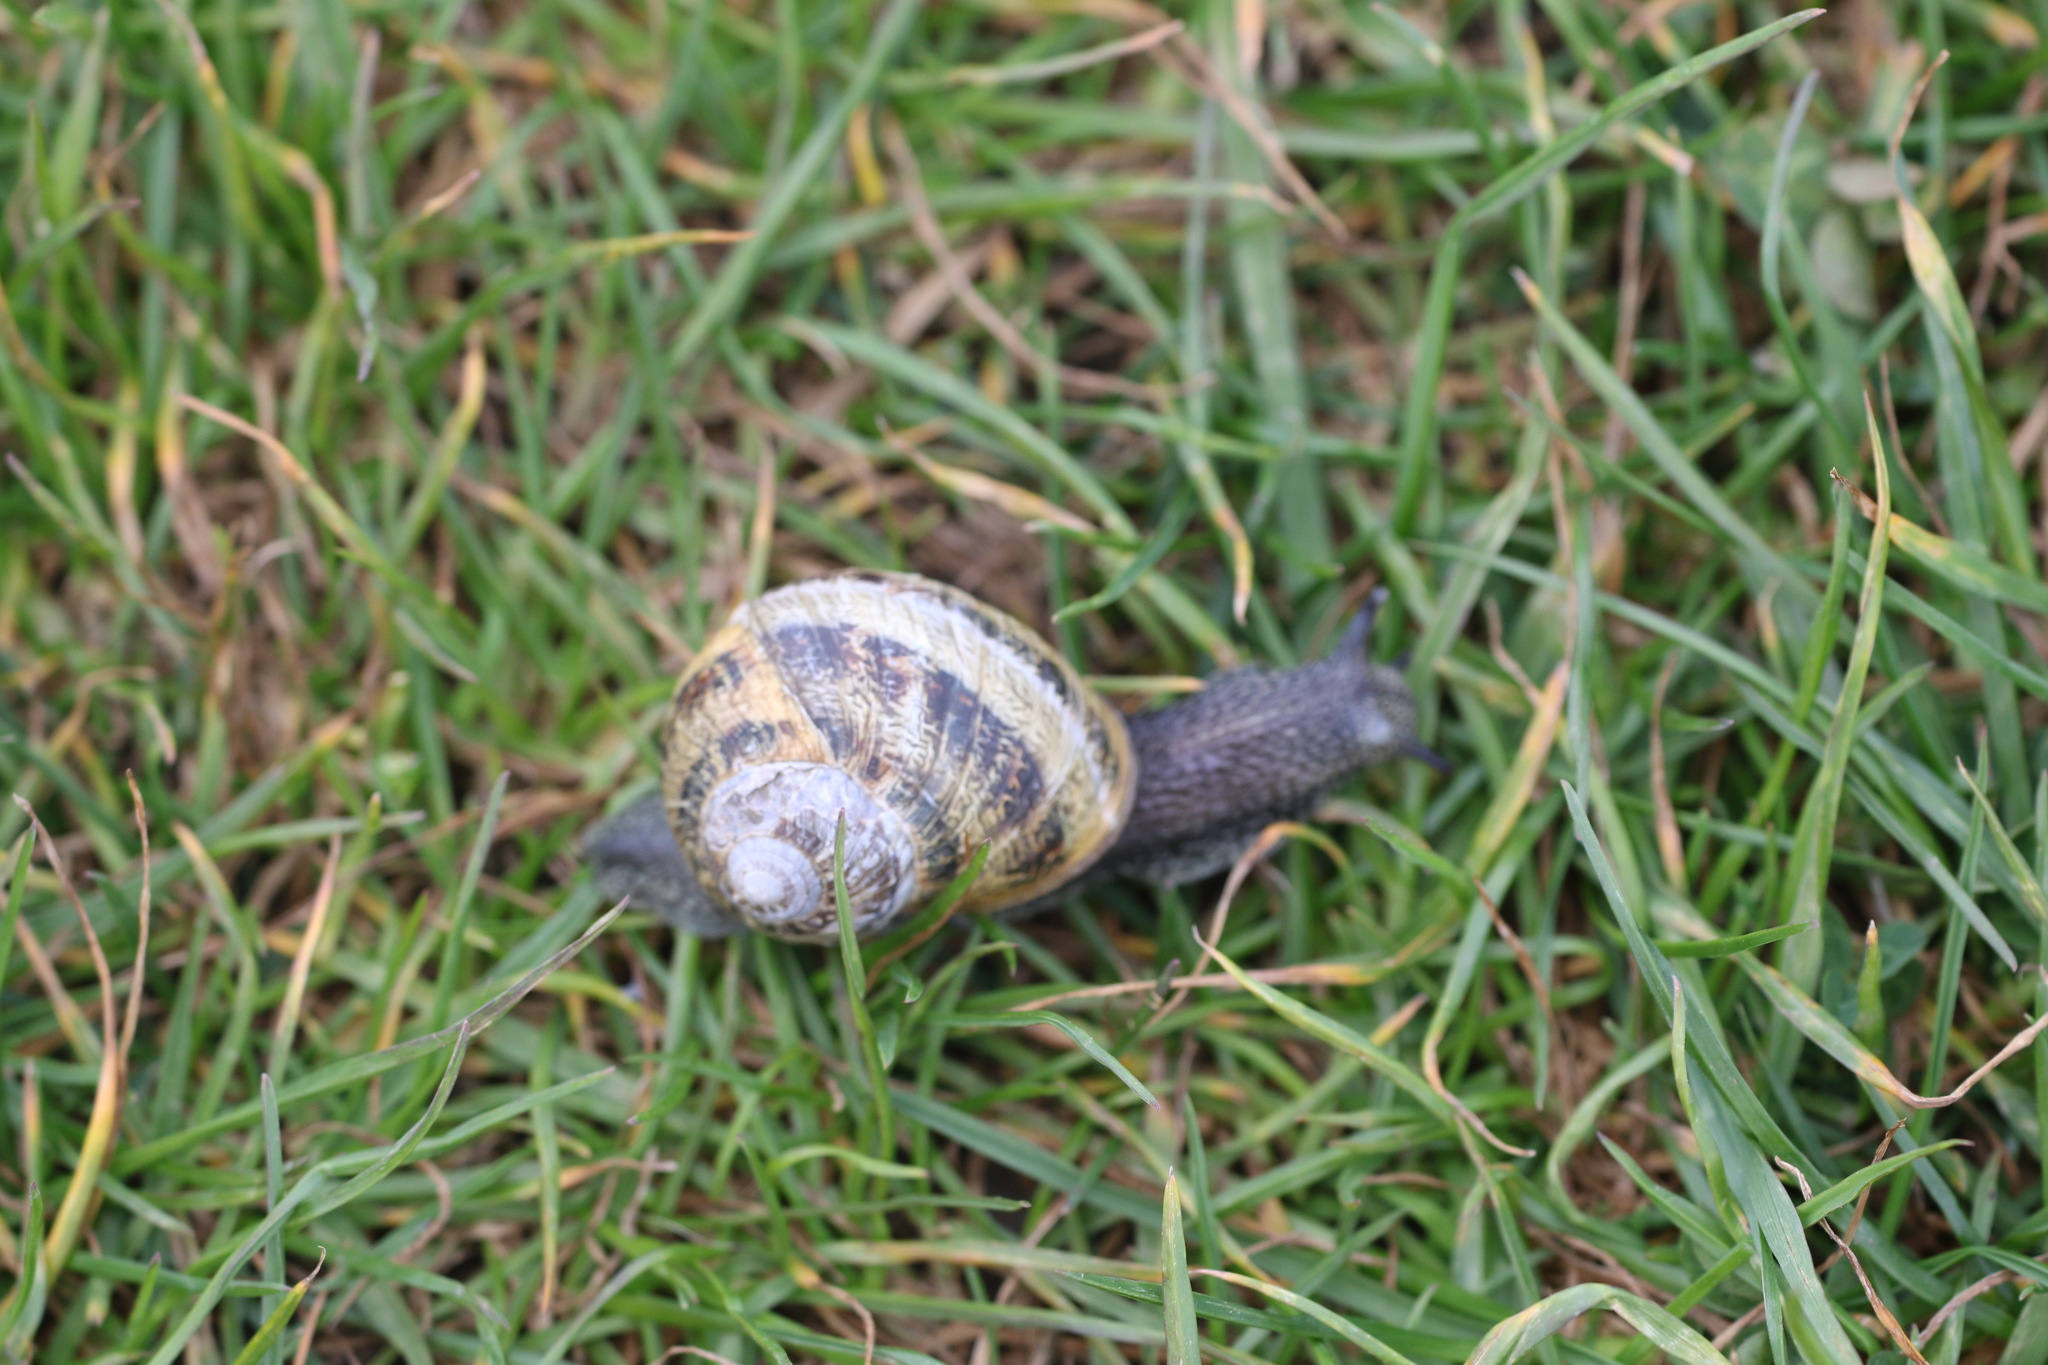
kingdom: Animalia
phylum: Mollusca
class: Gastropoda
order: Stylommatophora
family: Helicidae
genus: Cornu
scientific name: Cornu aspersum
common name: Brown garden snail
